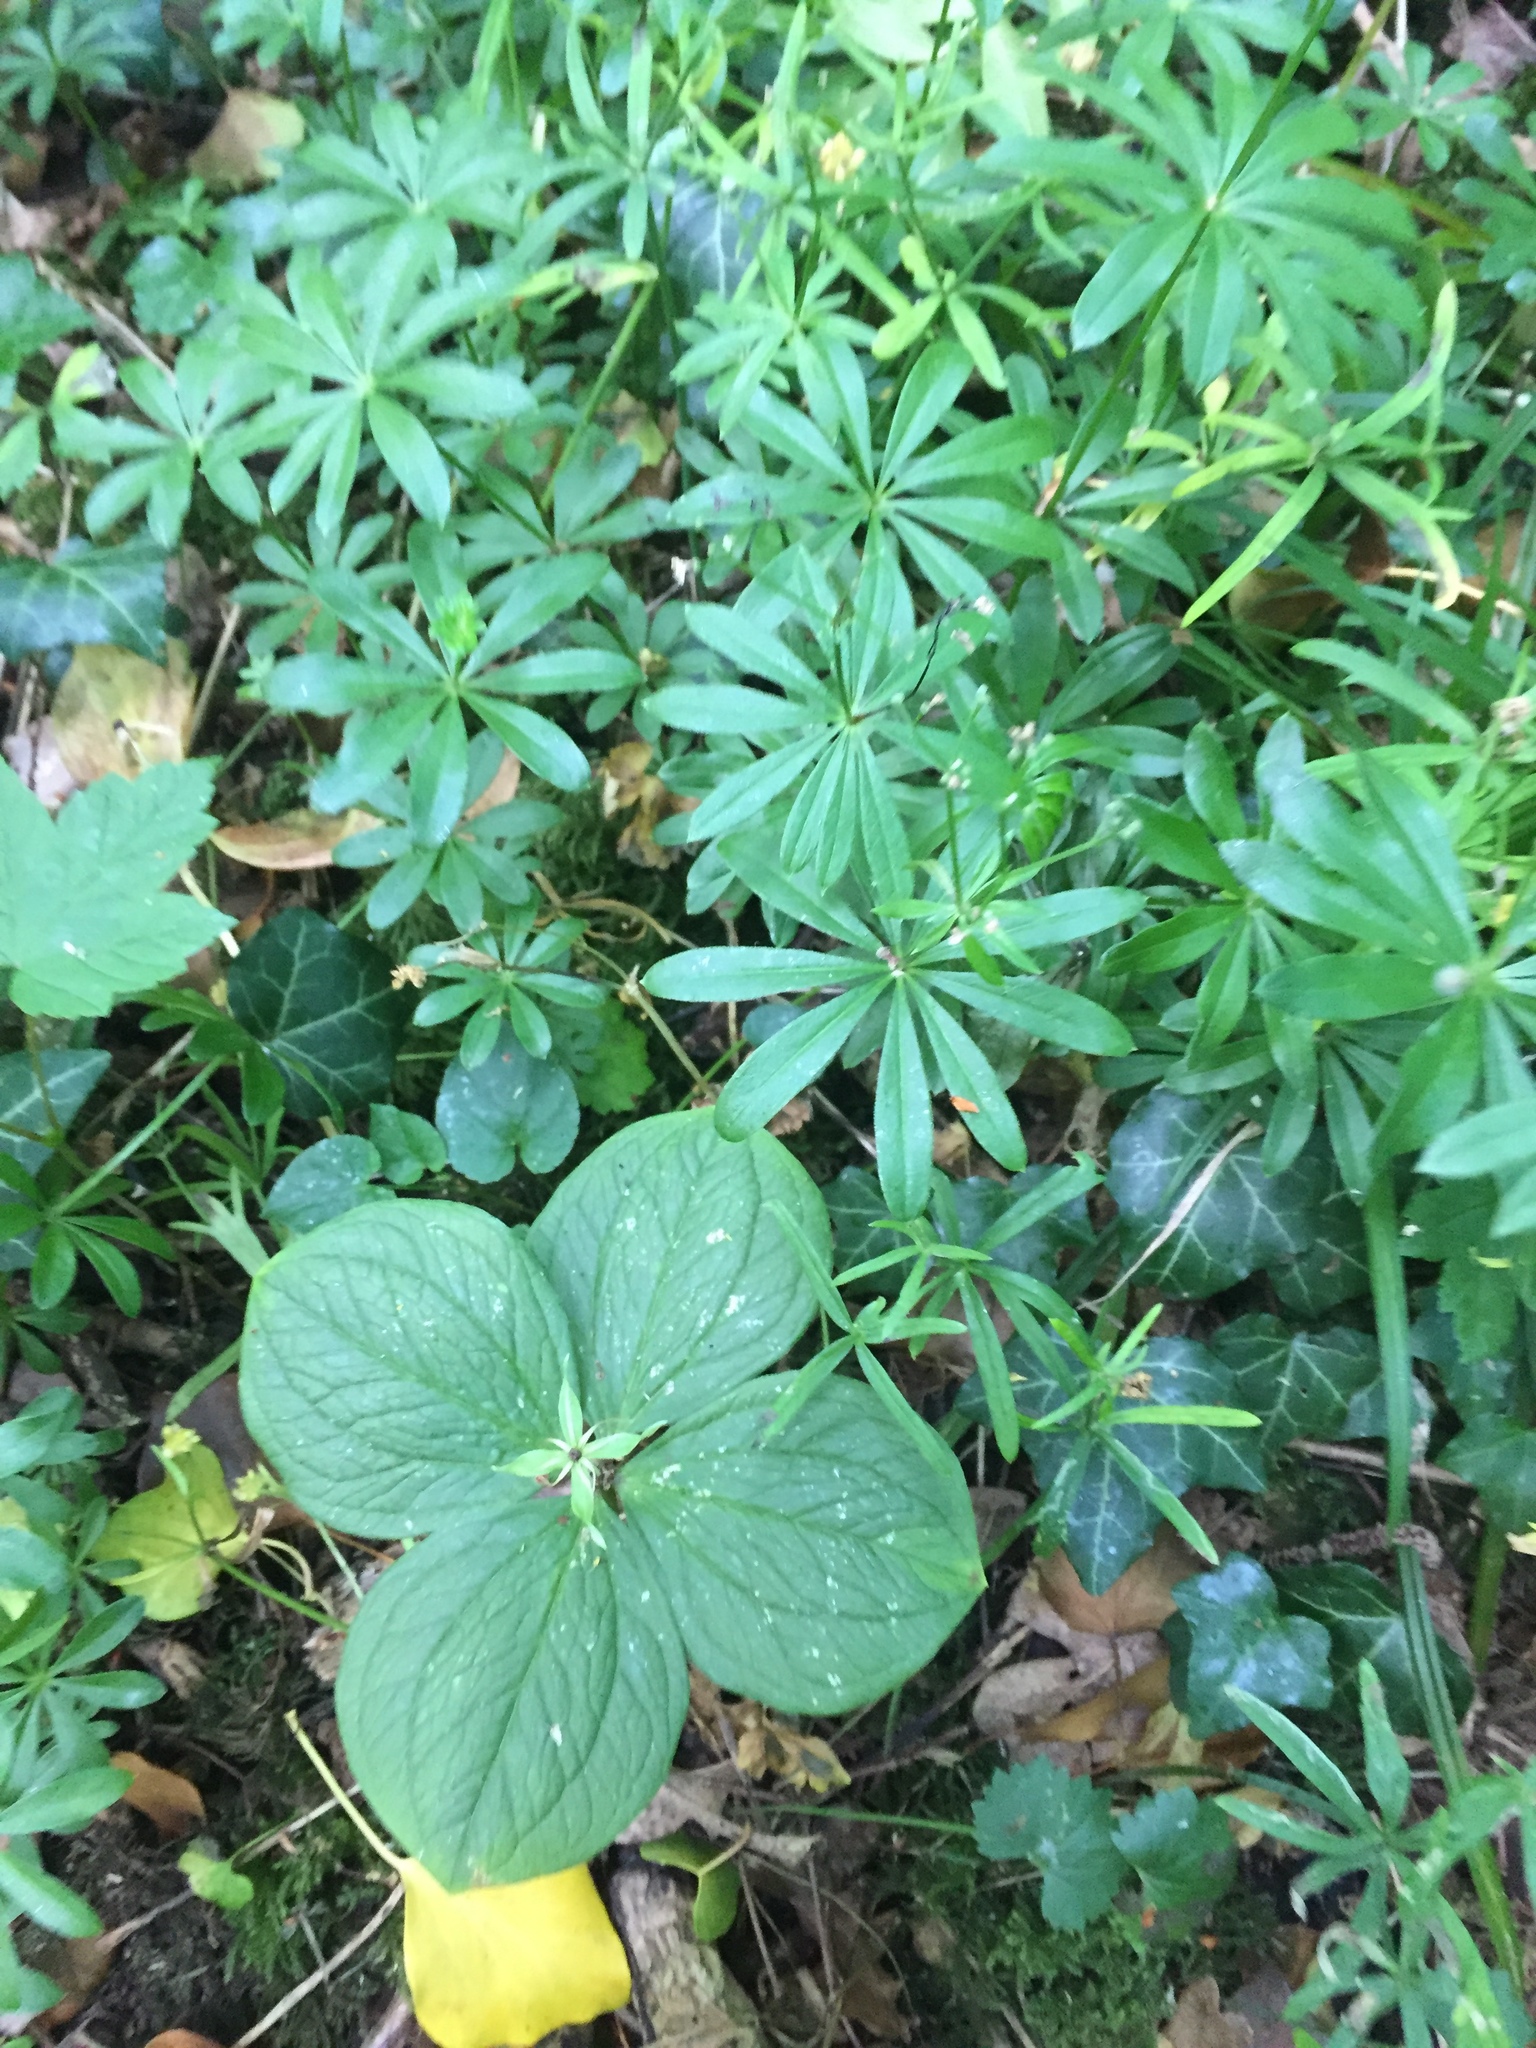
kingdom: Plantae
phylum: Tracheophyta
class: Liliopsida
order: Liliales
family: Melanthiaceae
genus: Paris
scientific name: Paris quadrifolia
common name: Herb-paris
